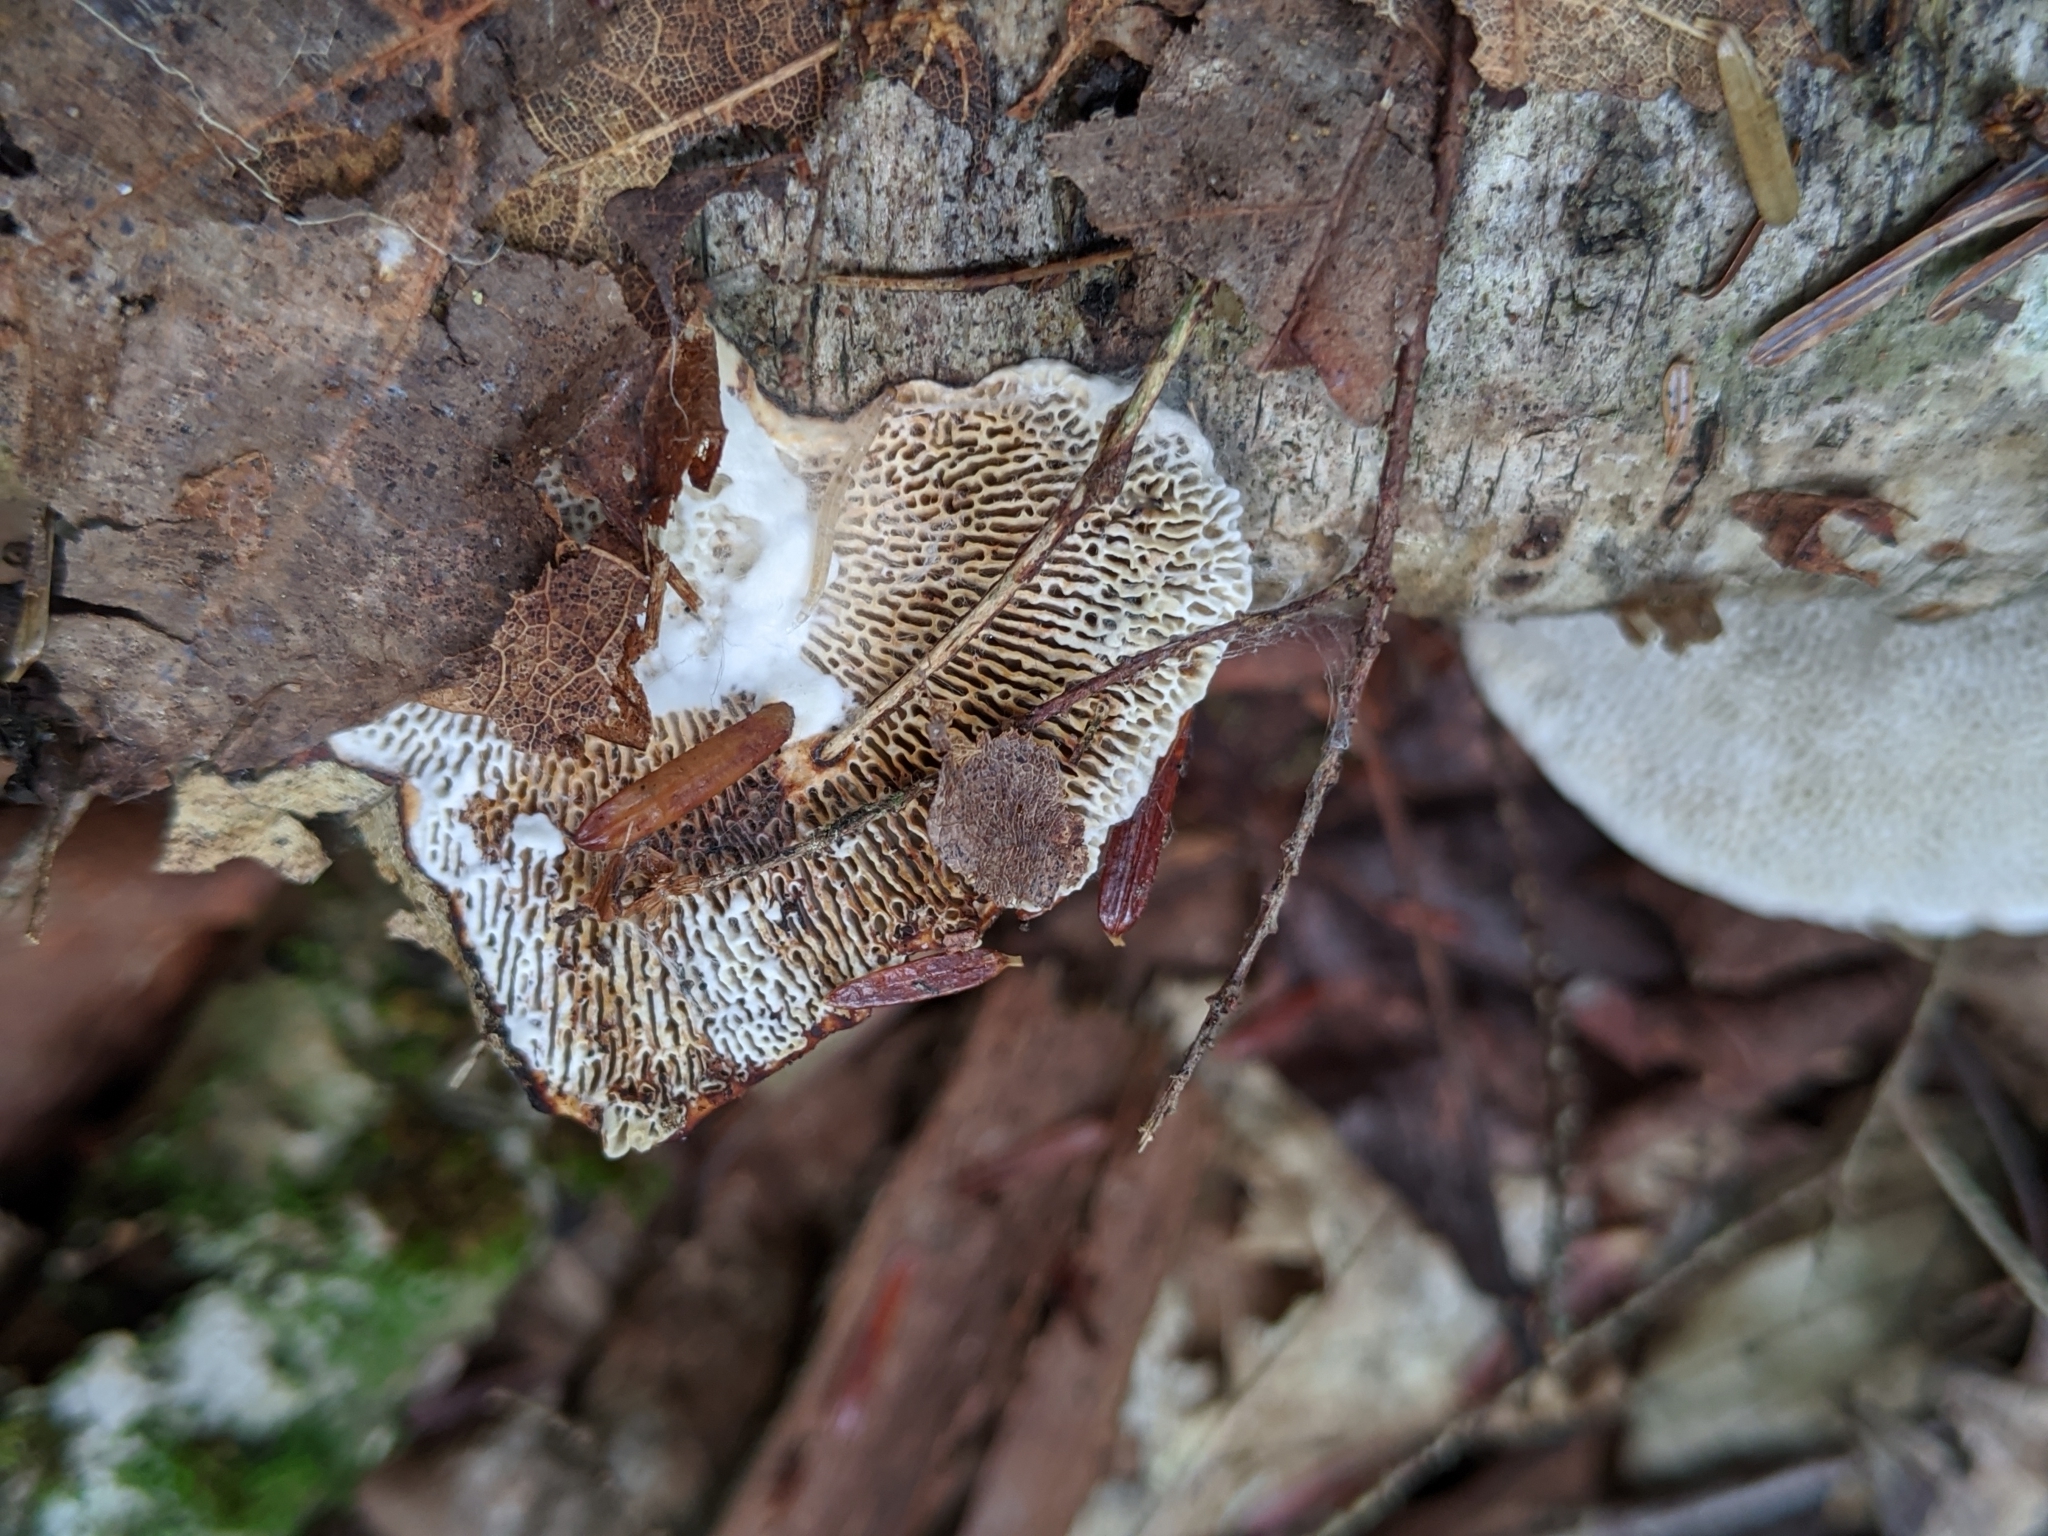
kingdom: Fungi
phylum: Basidiomycota
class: Agaricomycetes
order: Polyporales
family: Polyporaceae
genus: Daedaleopsis
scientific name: Daedaleopsis confragosa
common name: Blushing bracket
